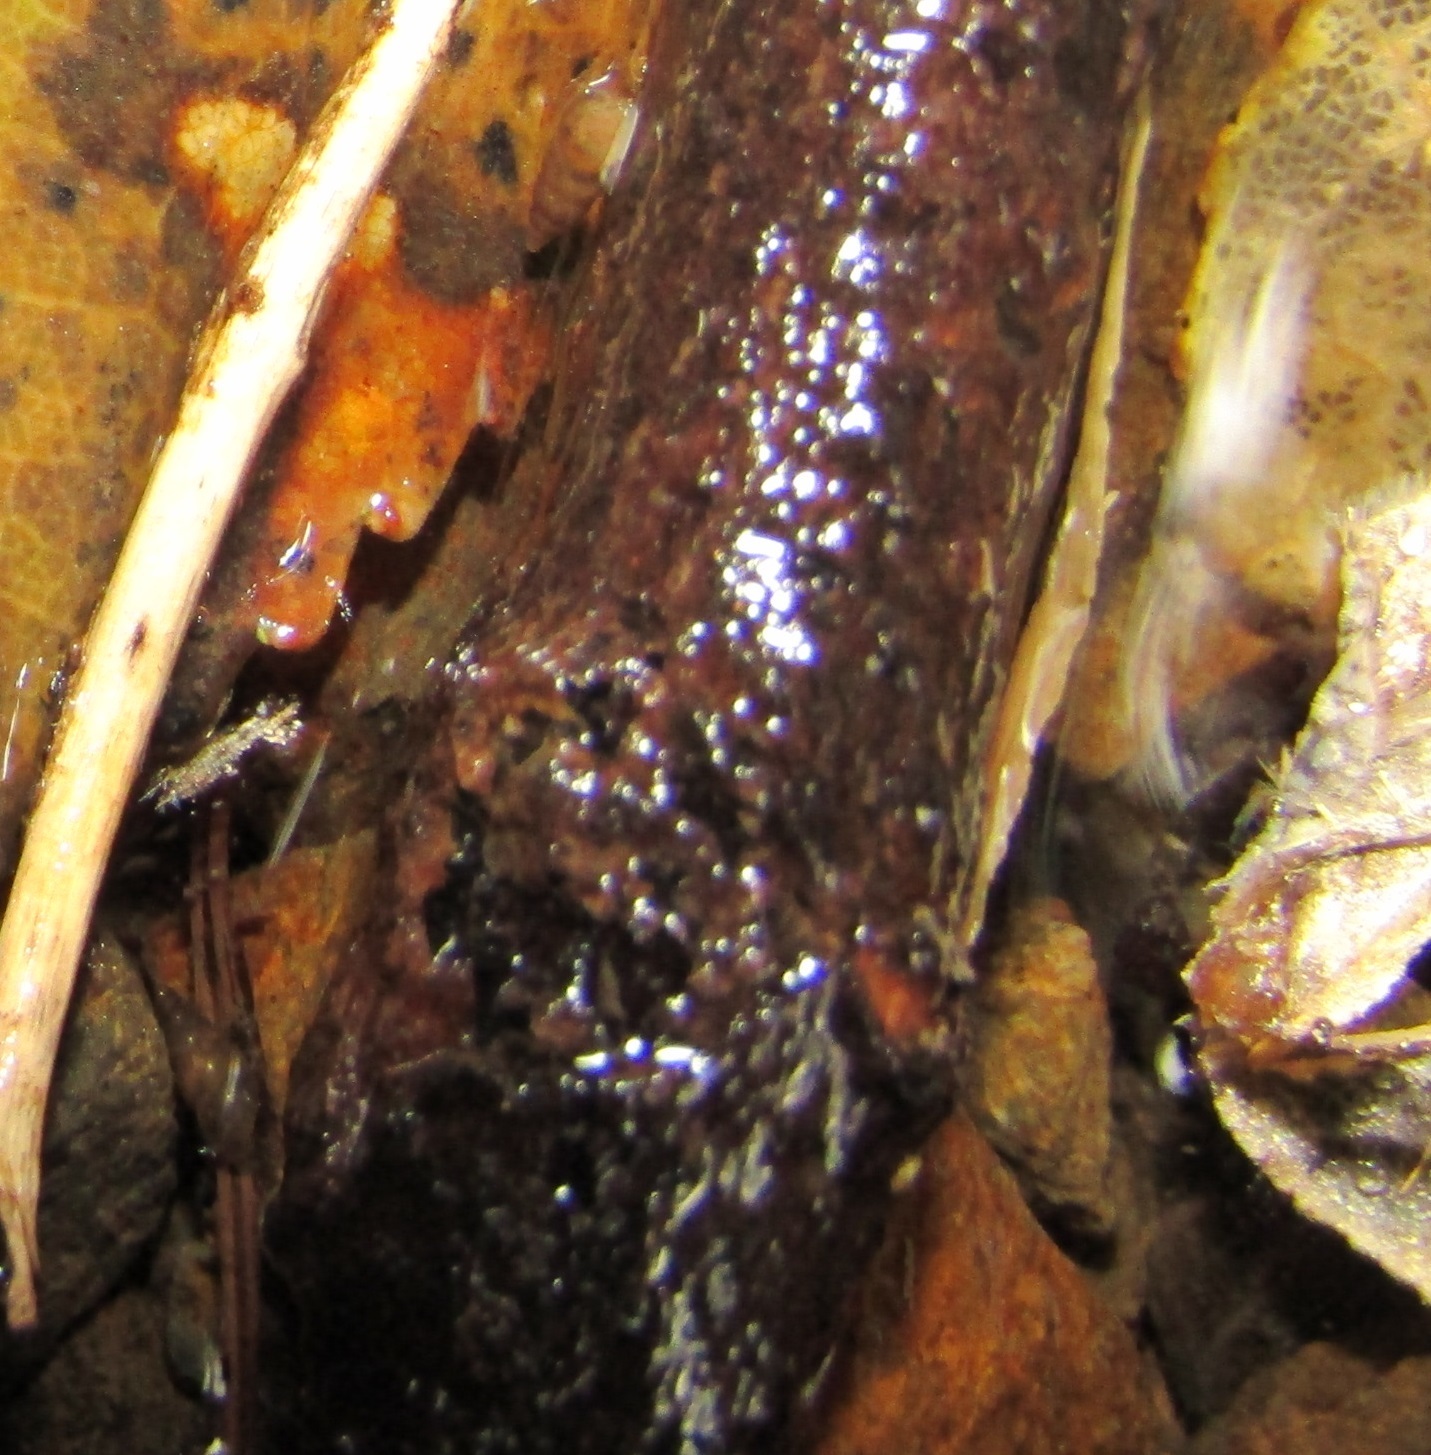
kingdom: Animalia
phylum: Mollusca
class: Gastropoda
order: Littorinimorpha
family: Tateidae
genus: Potamopyrgus
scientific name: Potamopyrgus oppidanus
